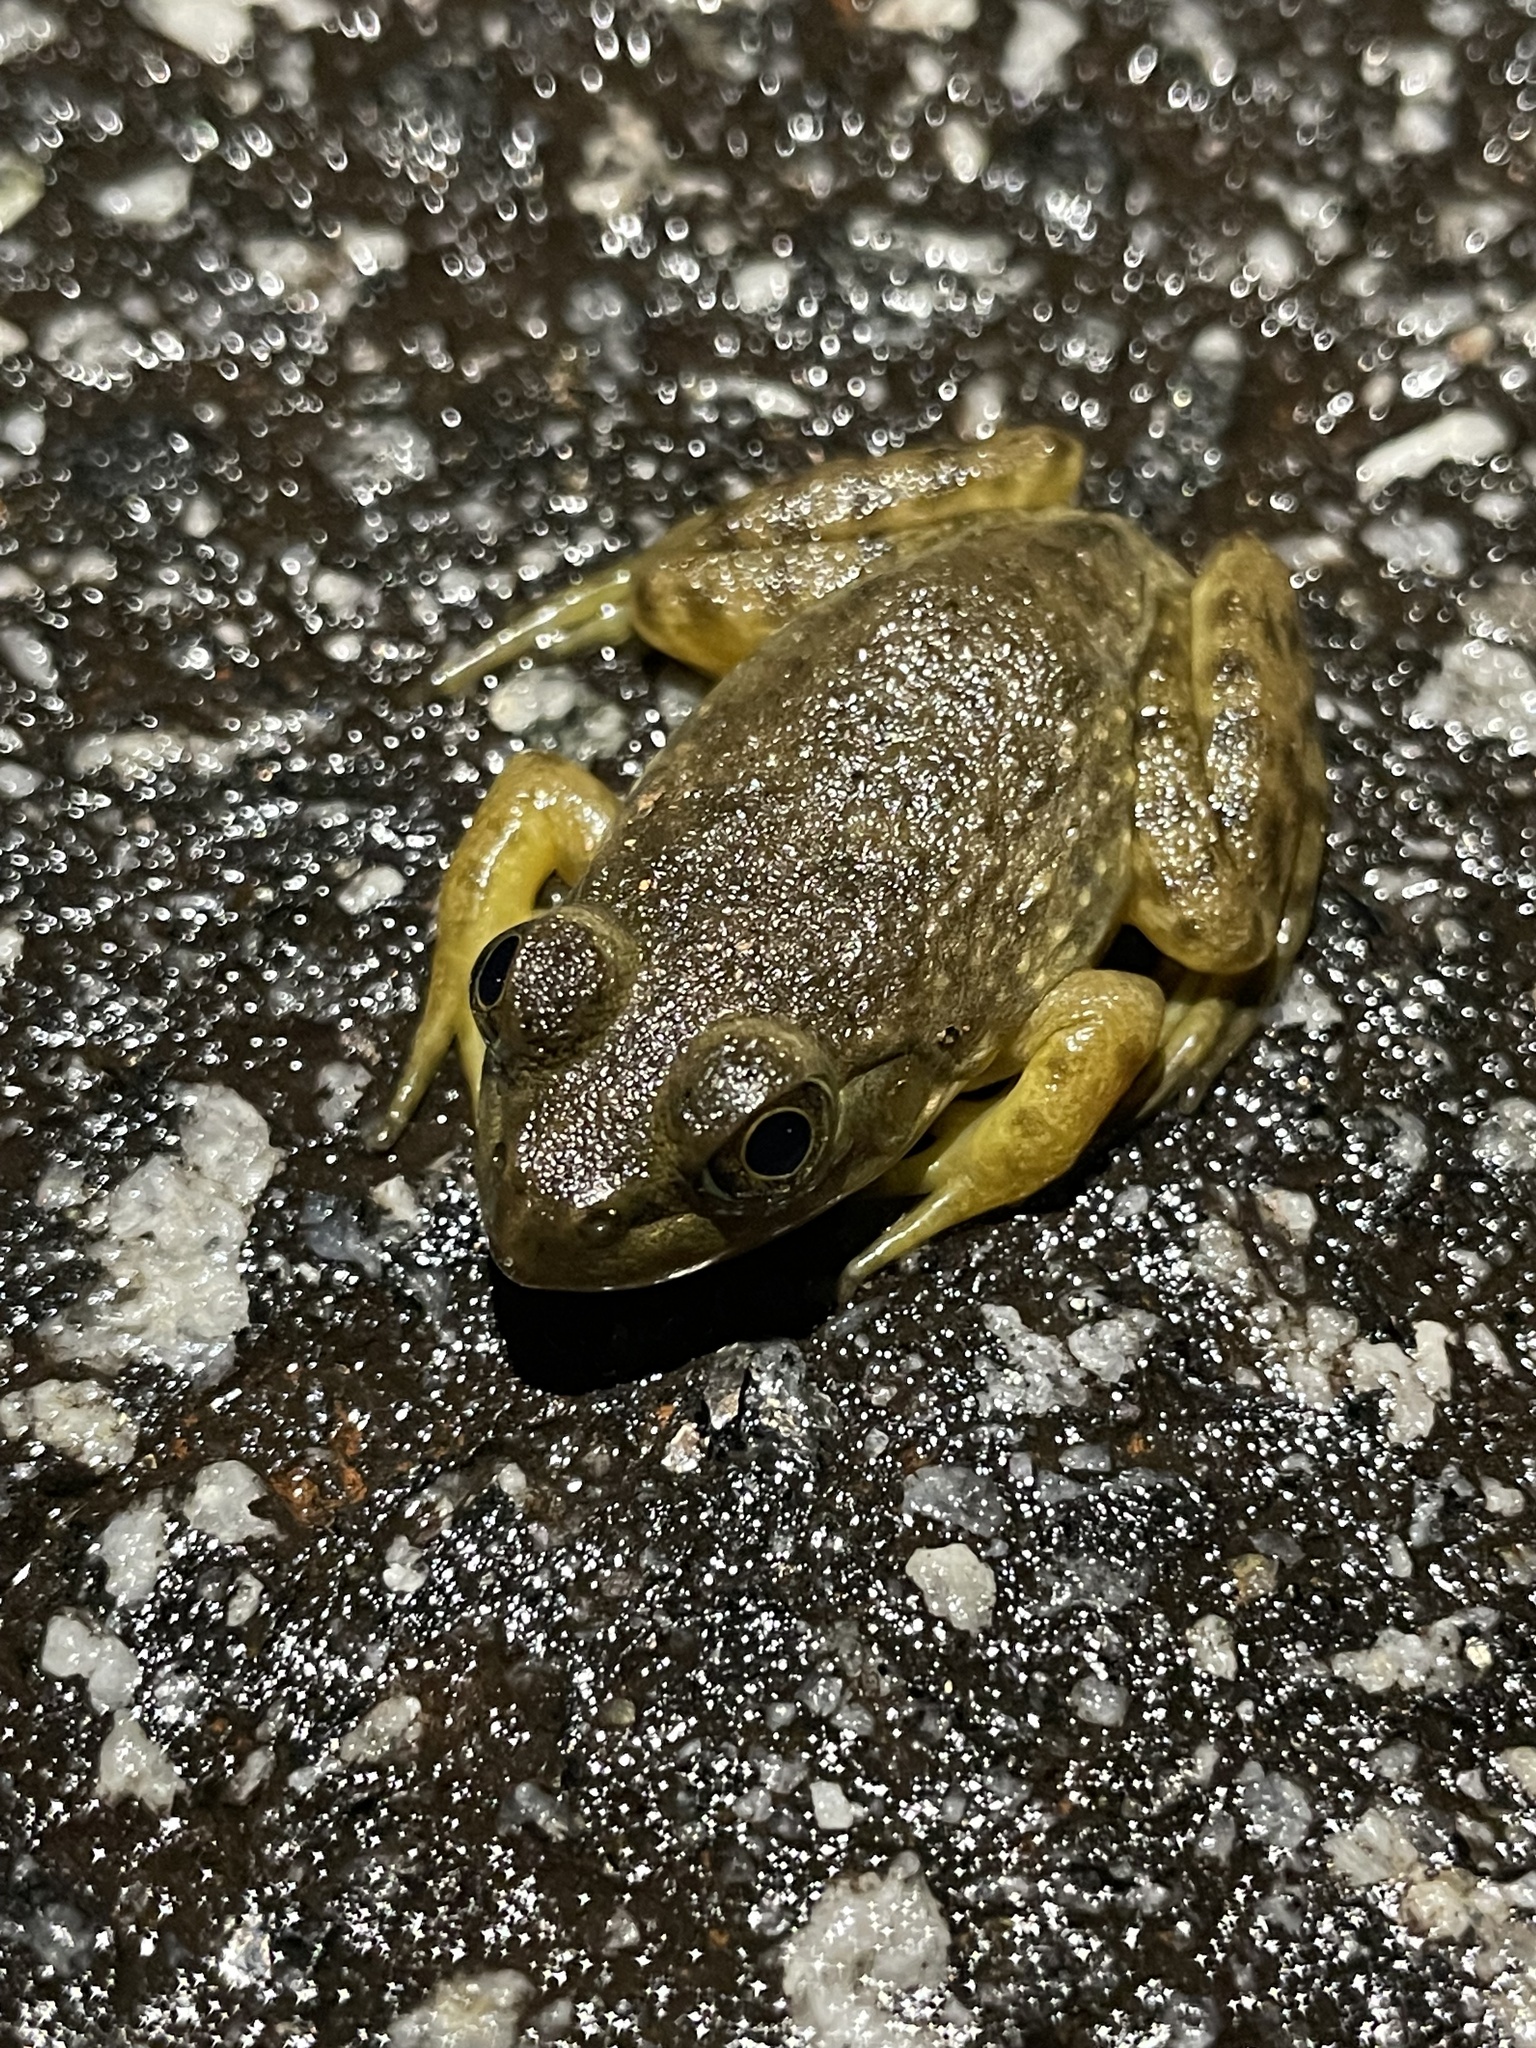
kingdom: Animalia
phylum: Chordata
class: Amphibia
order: Anura
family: Ranidae
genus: Lithobates
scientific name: Lithobates catesbeianus
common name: American bullfrog
